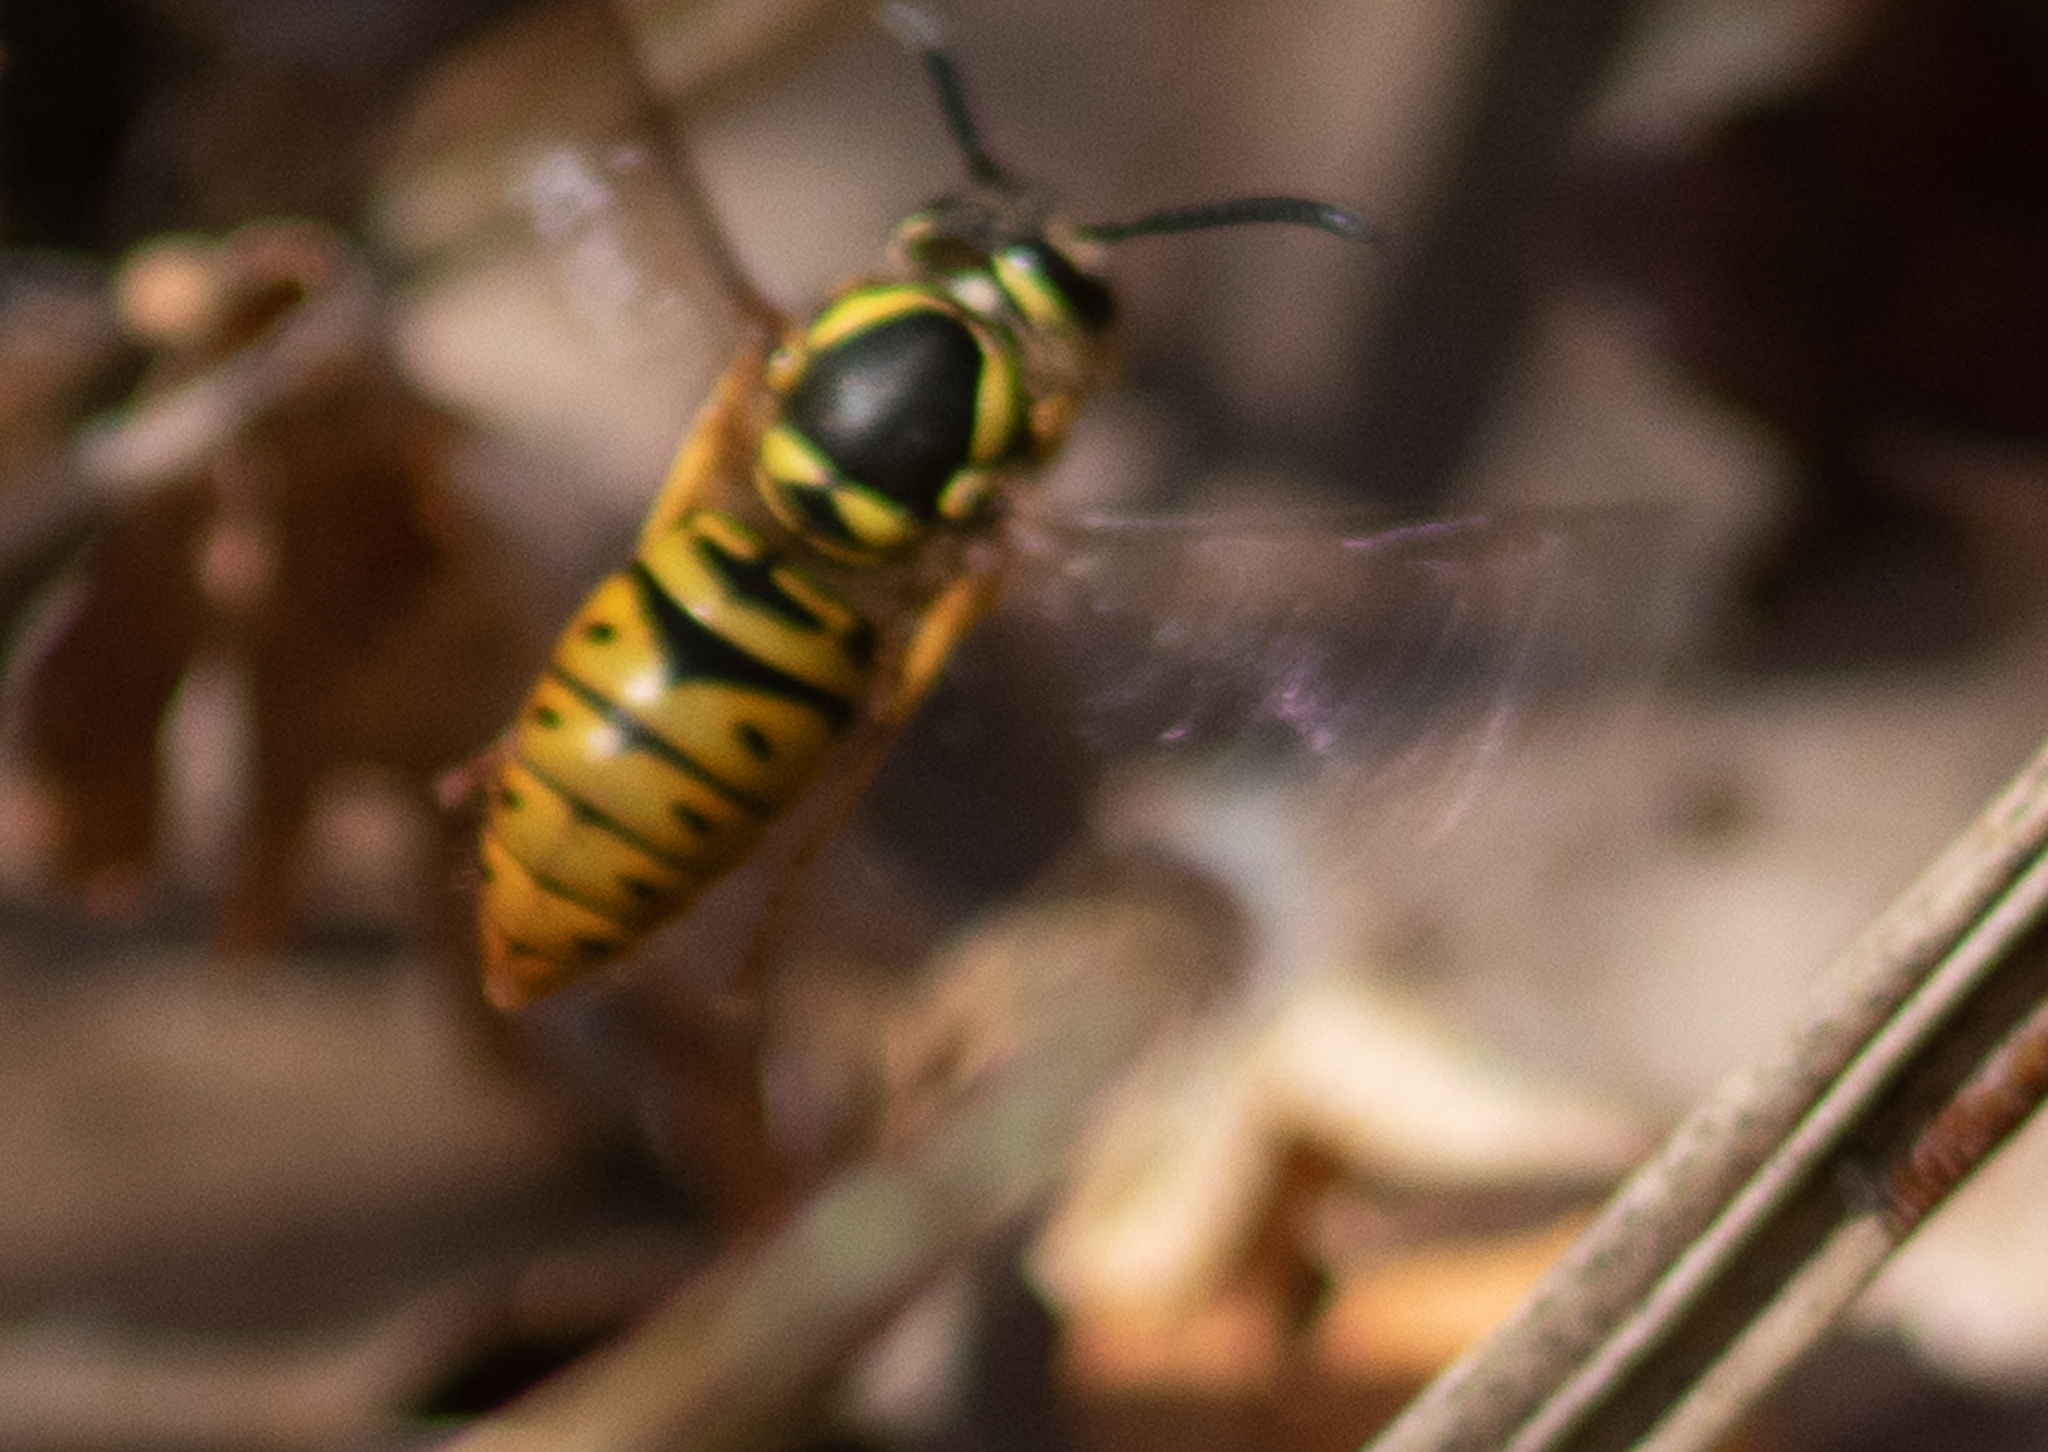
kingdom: Animalia
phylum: Arthropoda
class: Insecta
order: Hymenoptera
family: Vespidae
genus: Vespula
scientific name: Vespula maculifrons
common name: Eastern yellowjacket
